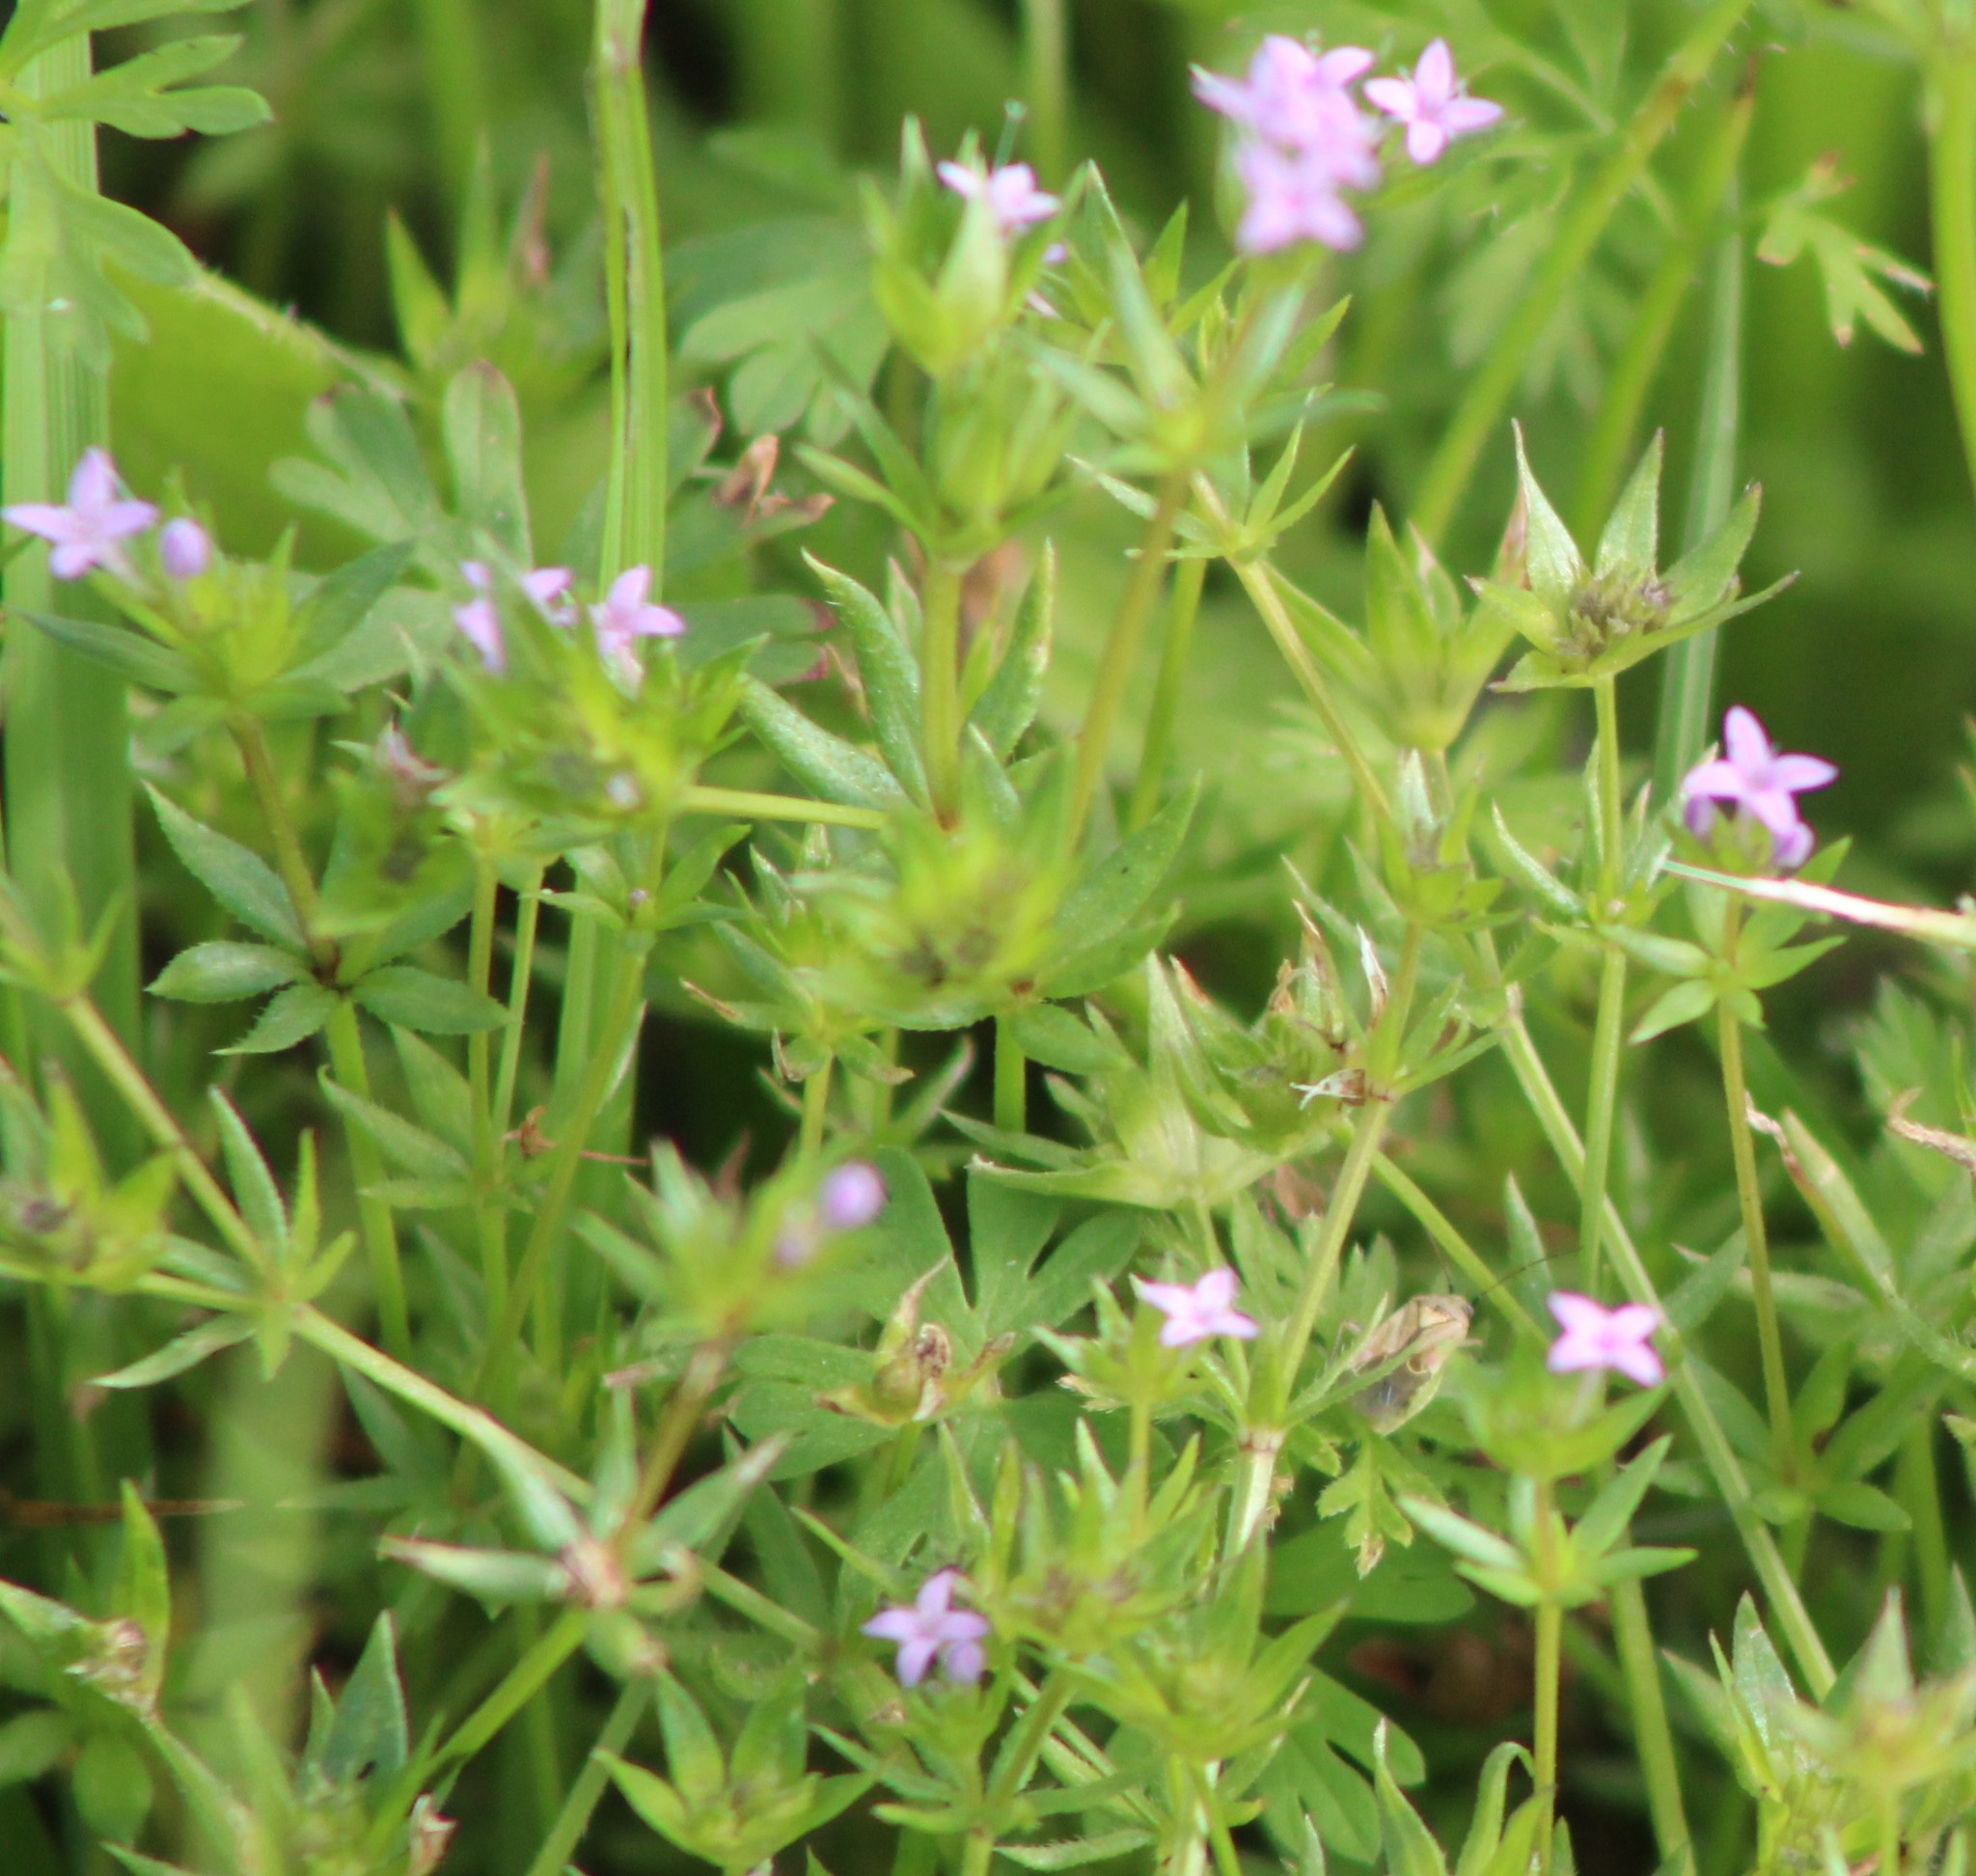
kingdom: Plantae
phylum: Tracheophyta
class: Magnoliopsida
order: Gentianales
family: Rubiaceae
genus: Sherardia
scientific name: Sherardia arvensis
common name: Field madder
